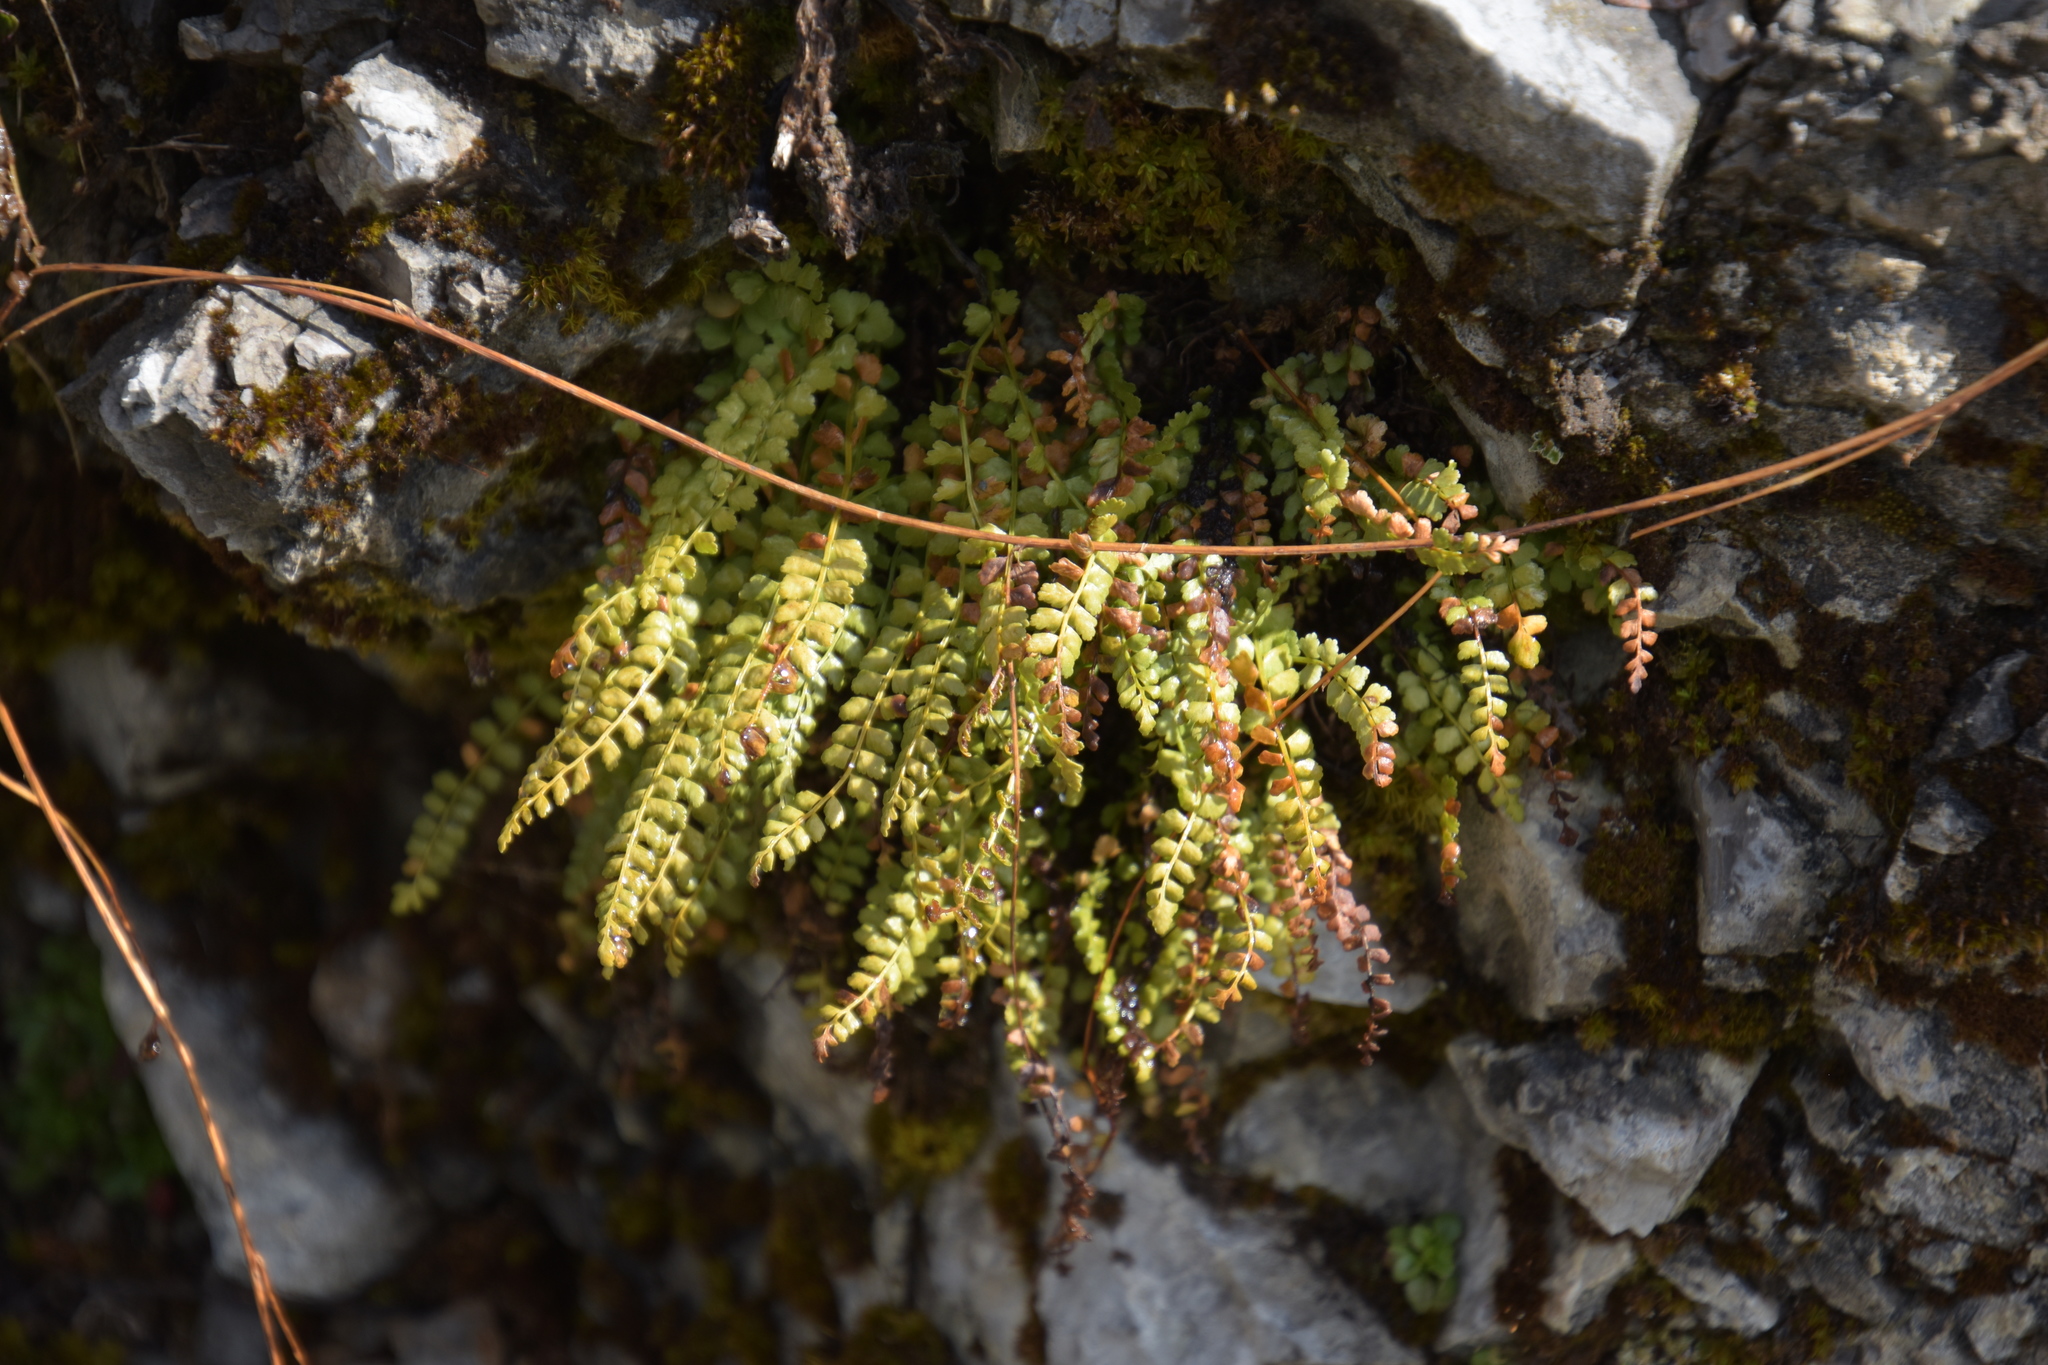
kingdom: Plantae
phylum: Tracheophyta
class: Polypodiopsida
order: Polypodiales
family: Aspleniaceae
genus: Asplenium
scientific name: Asplenium viride
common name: Green spleenwort
